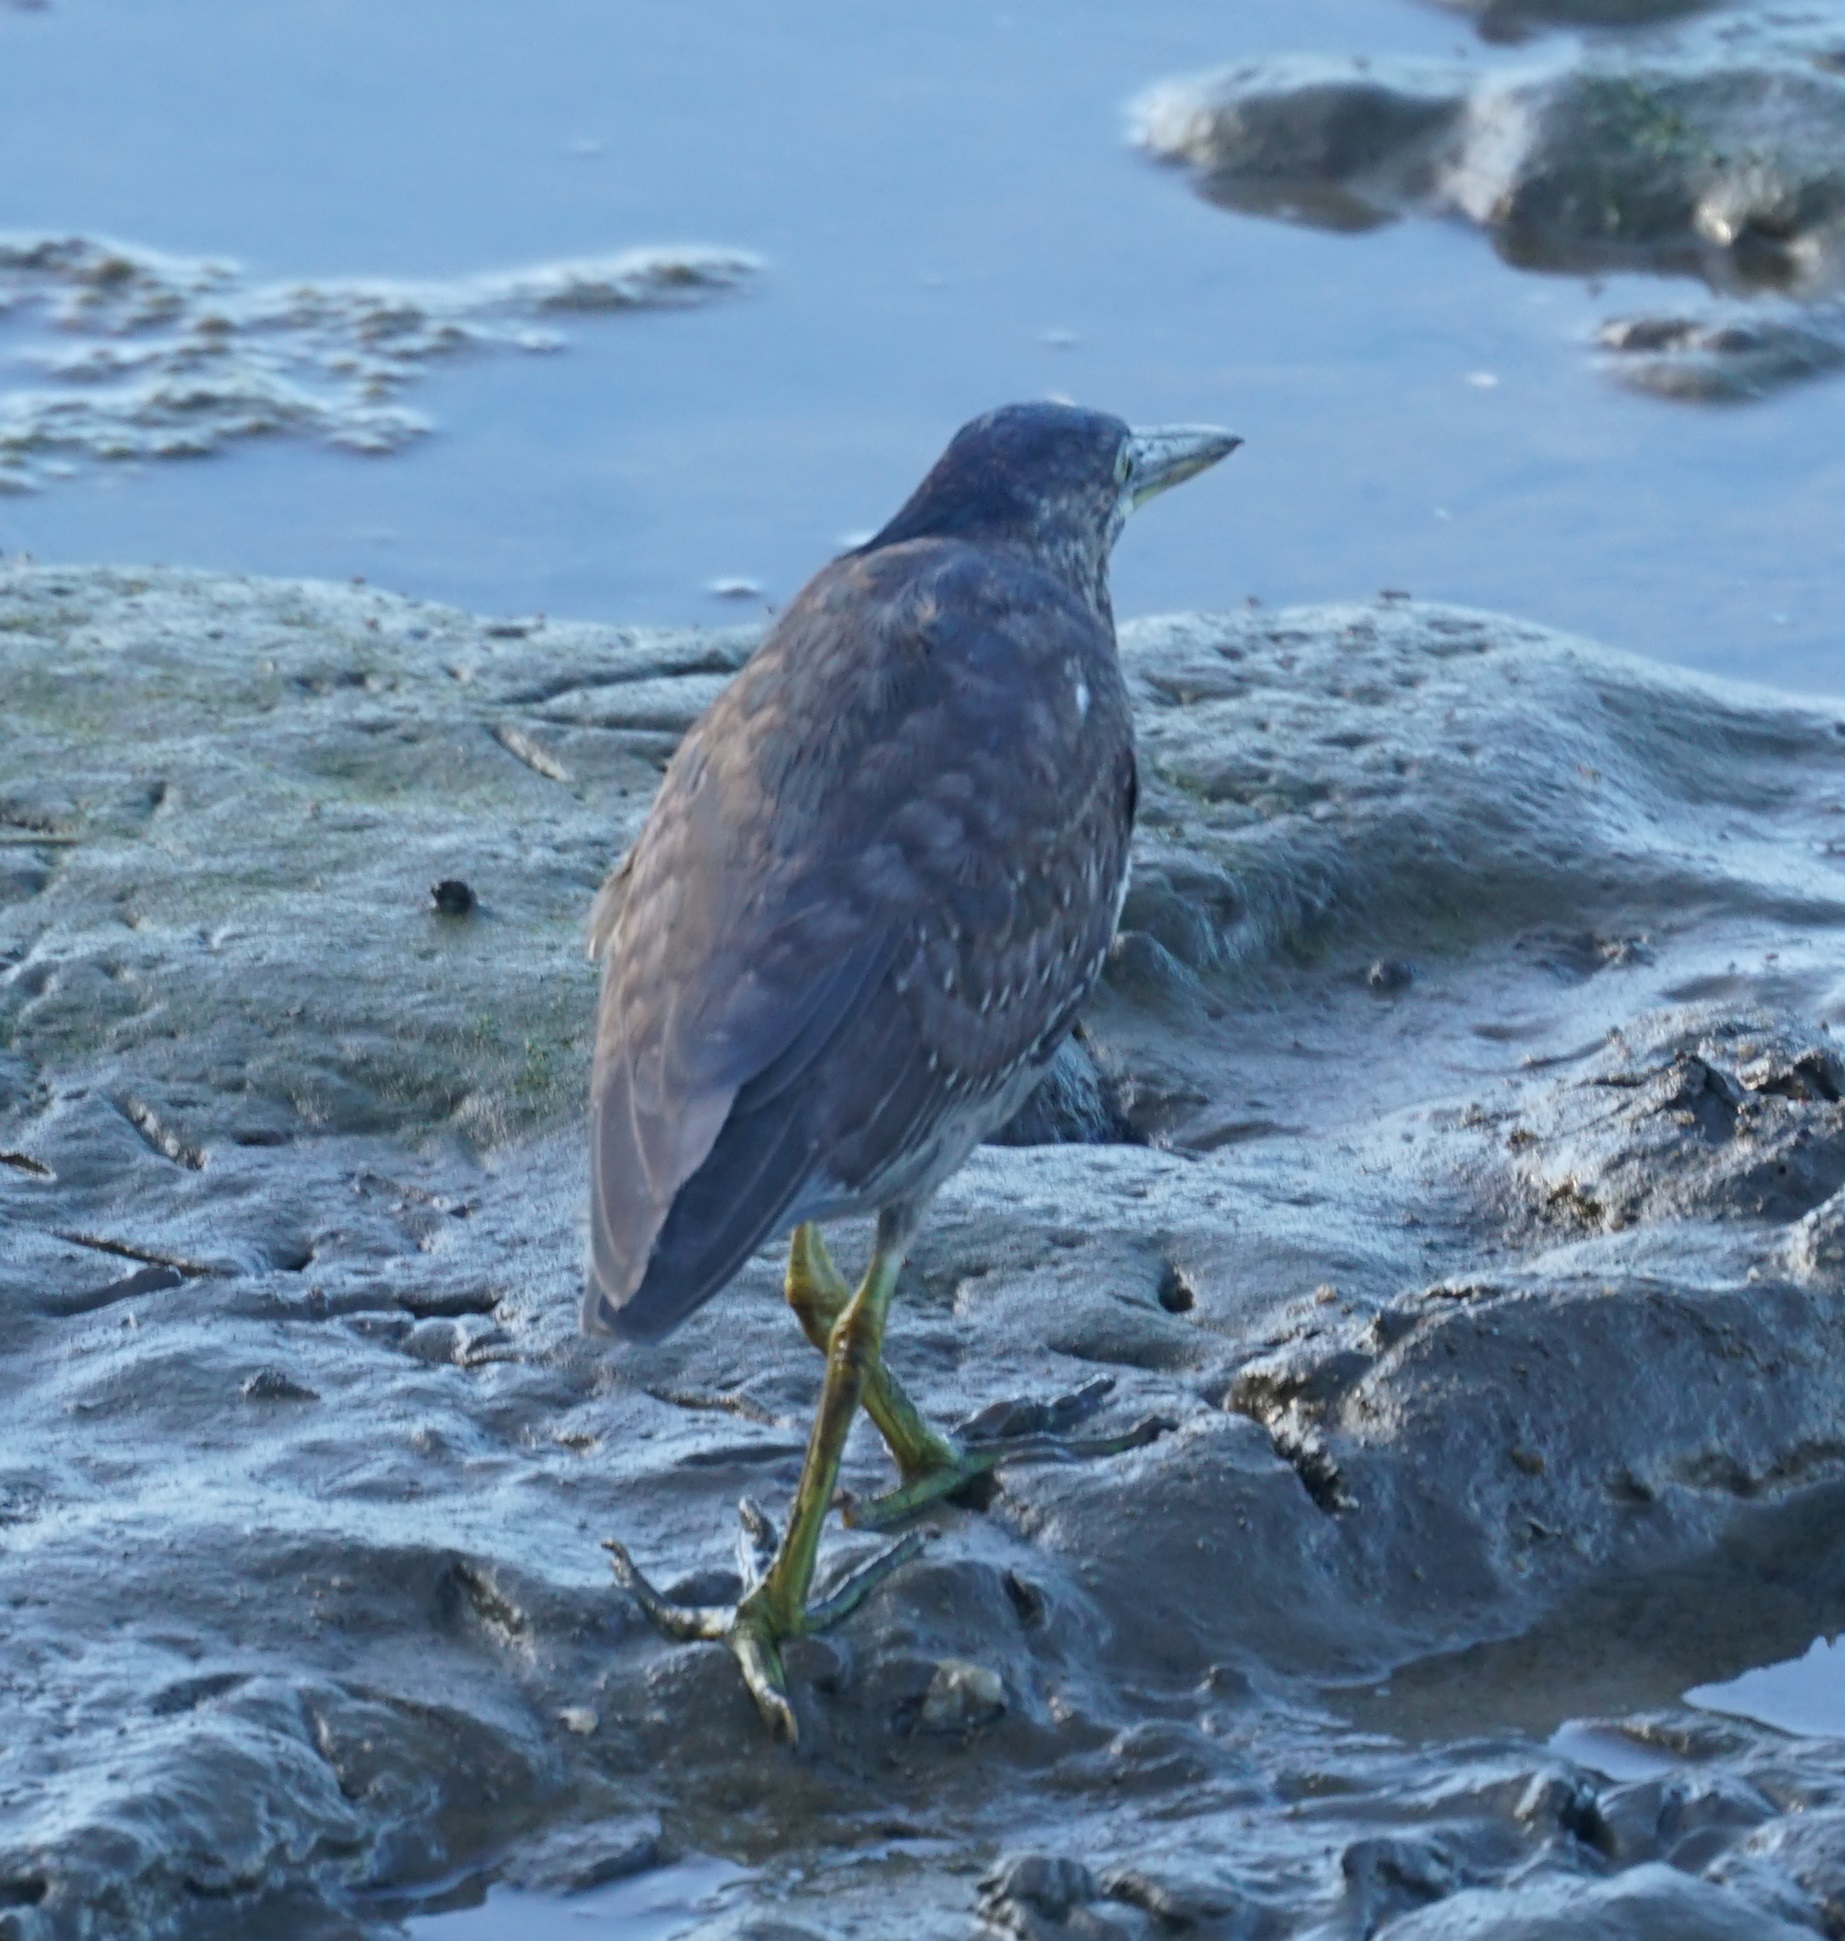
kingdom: Animalia
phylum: Chordata
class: Aves
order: Pelecaniformes
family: Ardeidae
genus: Butorides
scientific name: Butorides striata
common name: Striated heron
